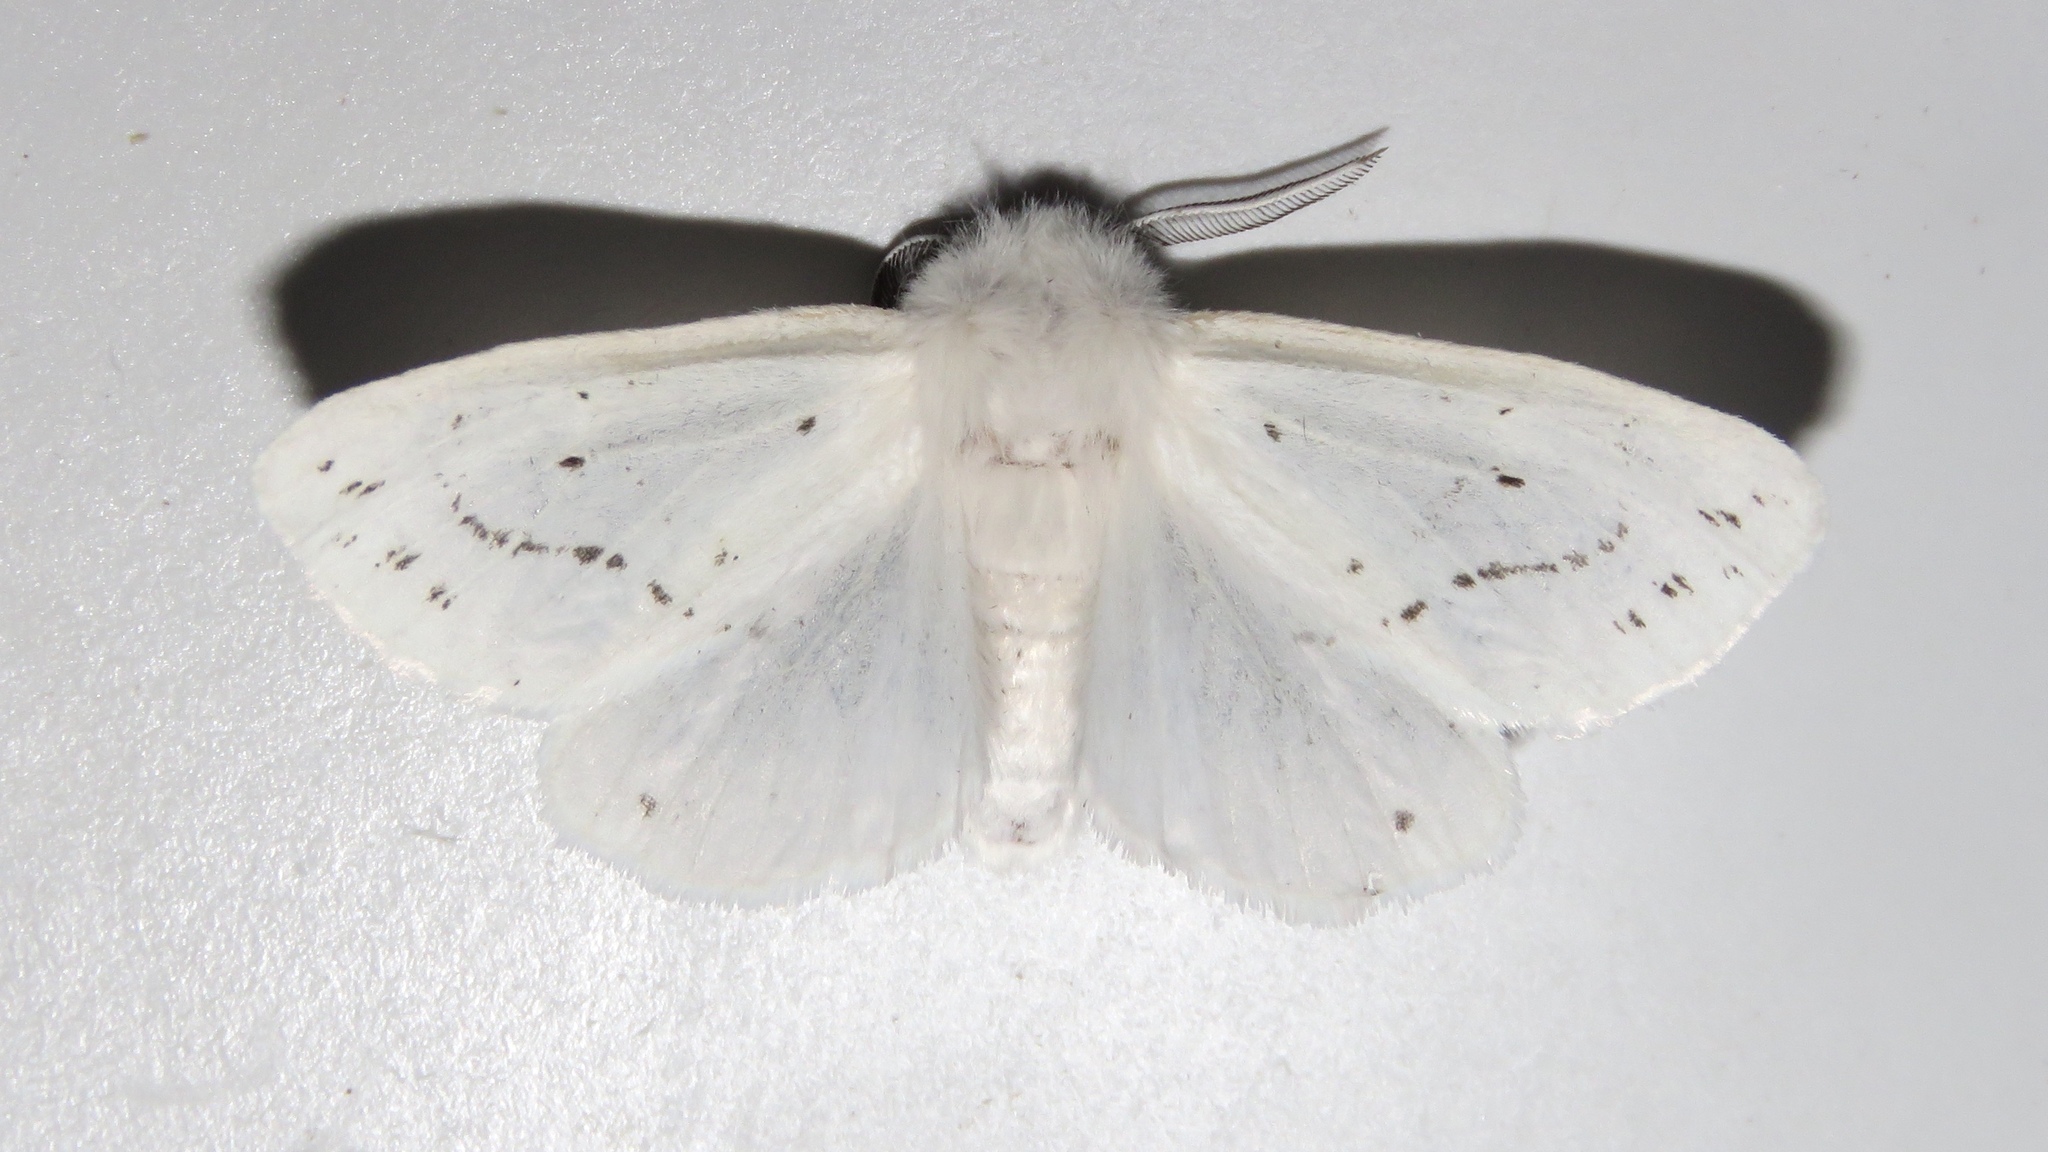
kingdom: Animalia
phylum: Arthropoda
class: Insecta
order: Lepidoptera
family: Erebidae
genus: Spilosoma
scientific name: Spilosoma congrua
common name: Agreeable tiger moth
